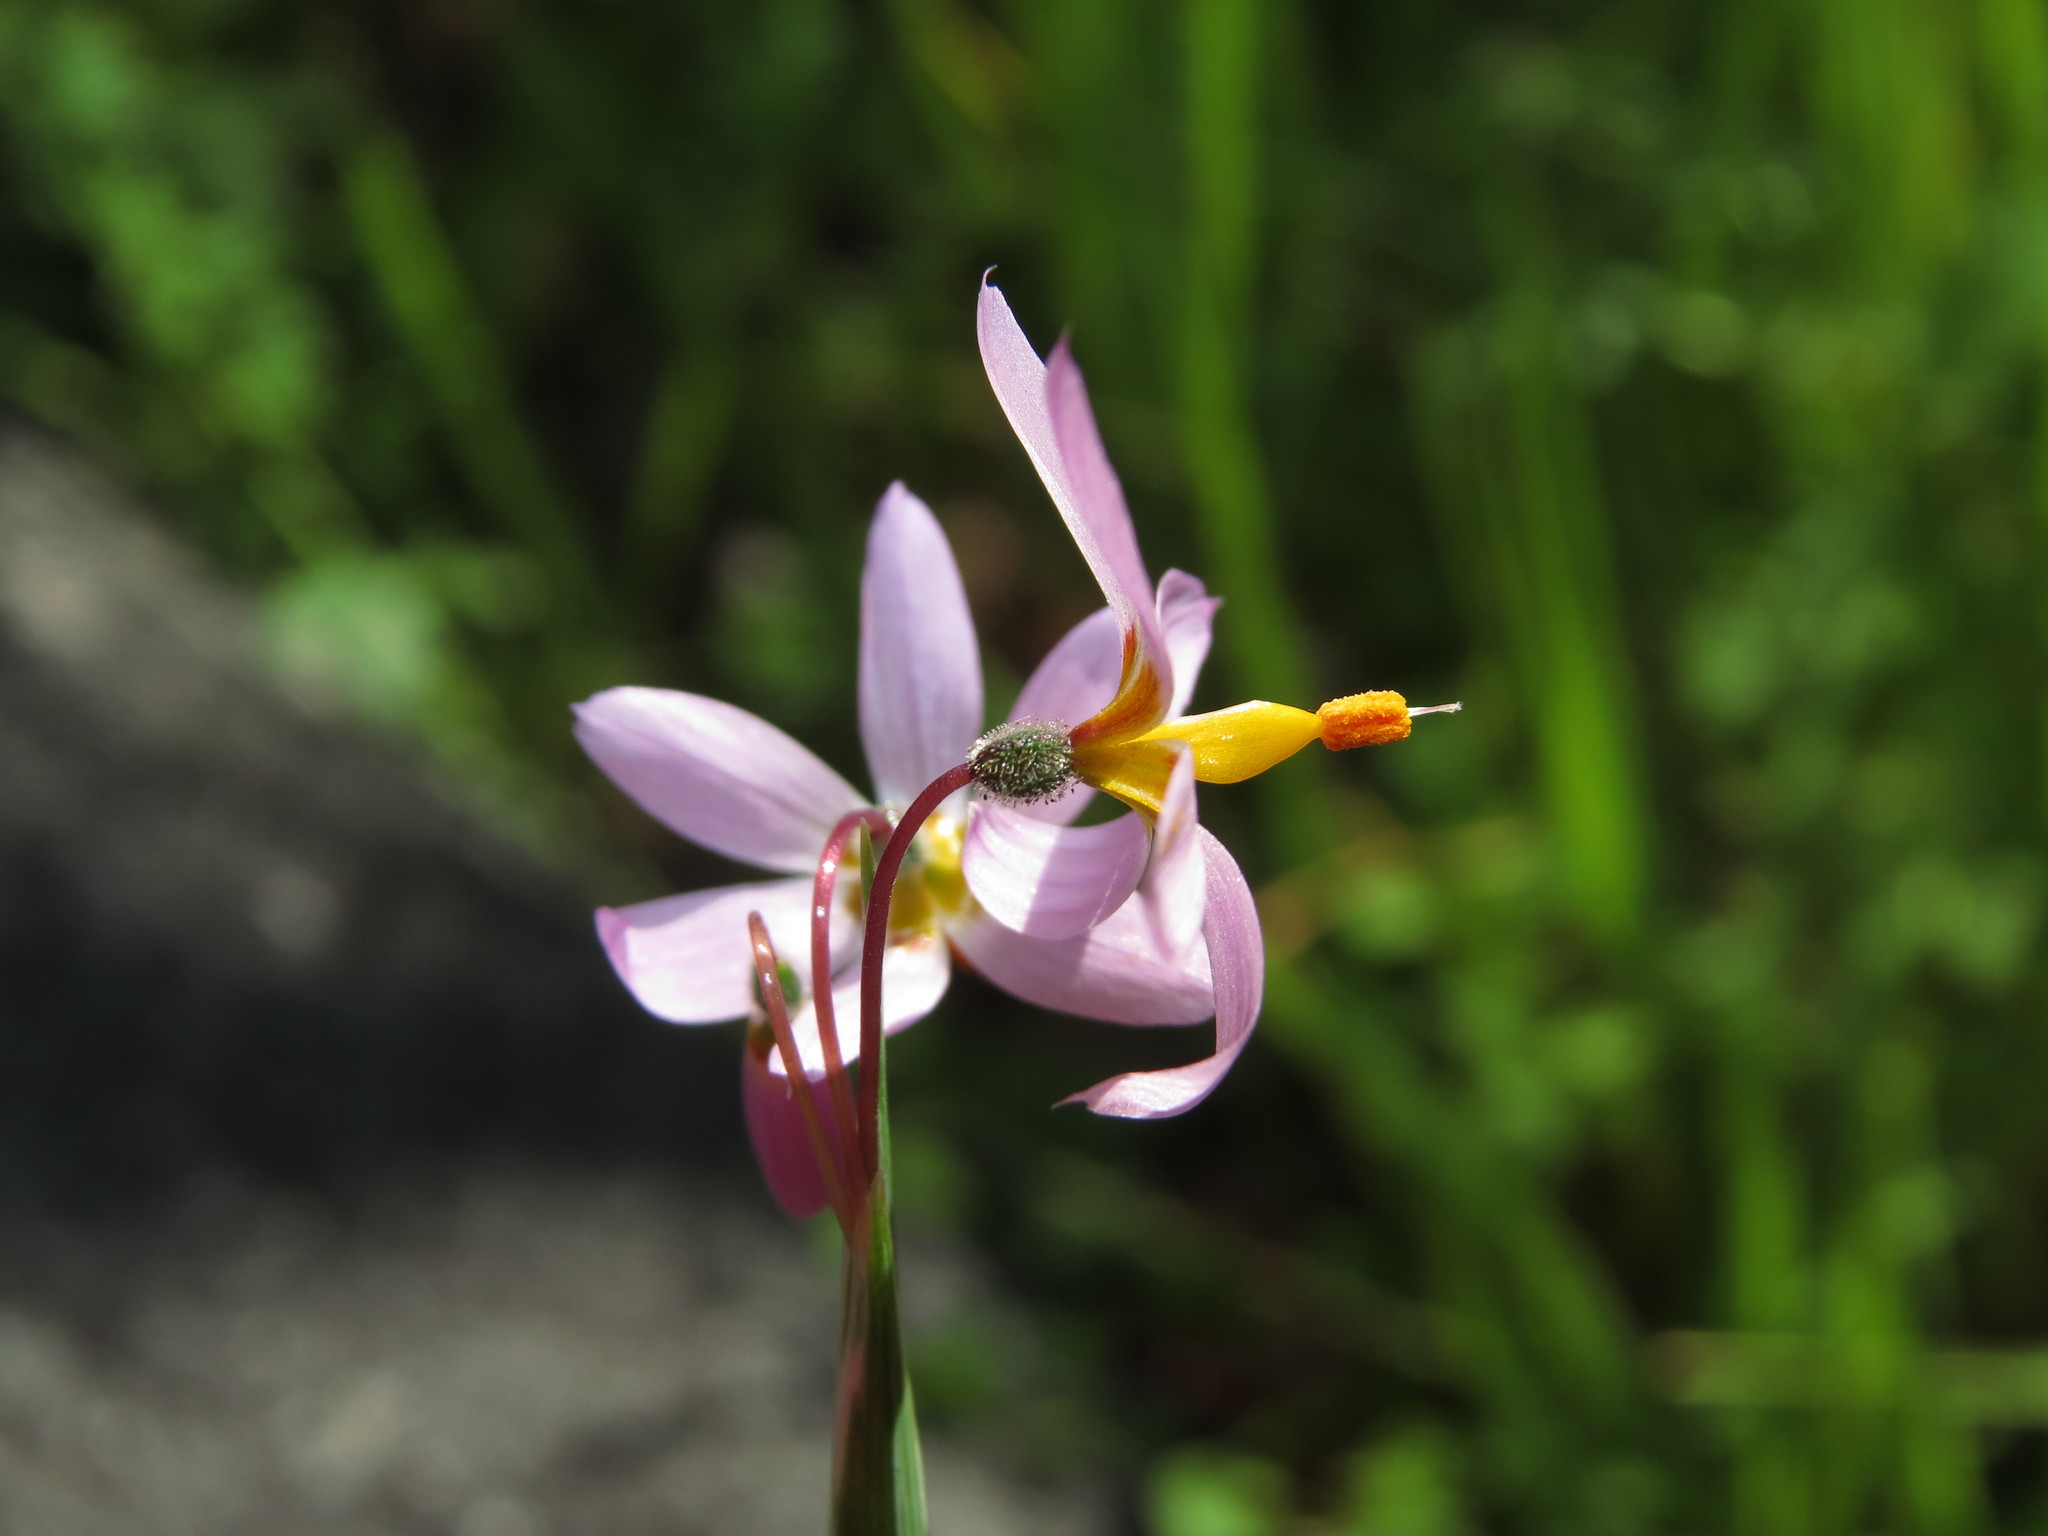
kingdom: Plantae
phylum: Tracheophyta
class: Liliopsida
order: Asparagales
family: Iridaceae
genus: Olsynium
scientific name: Olsynium philippii
